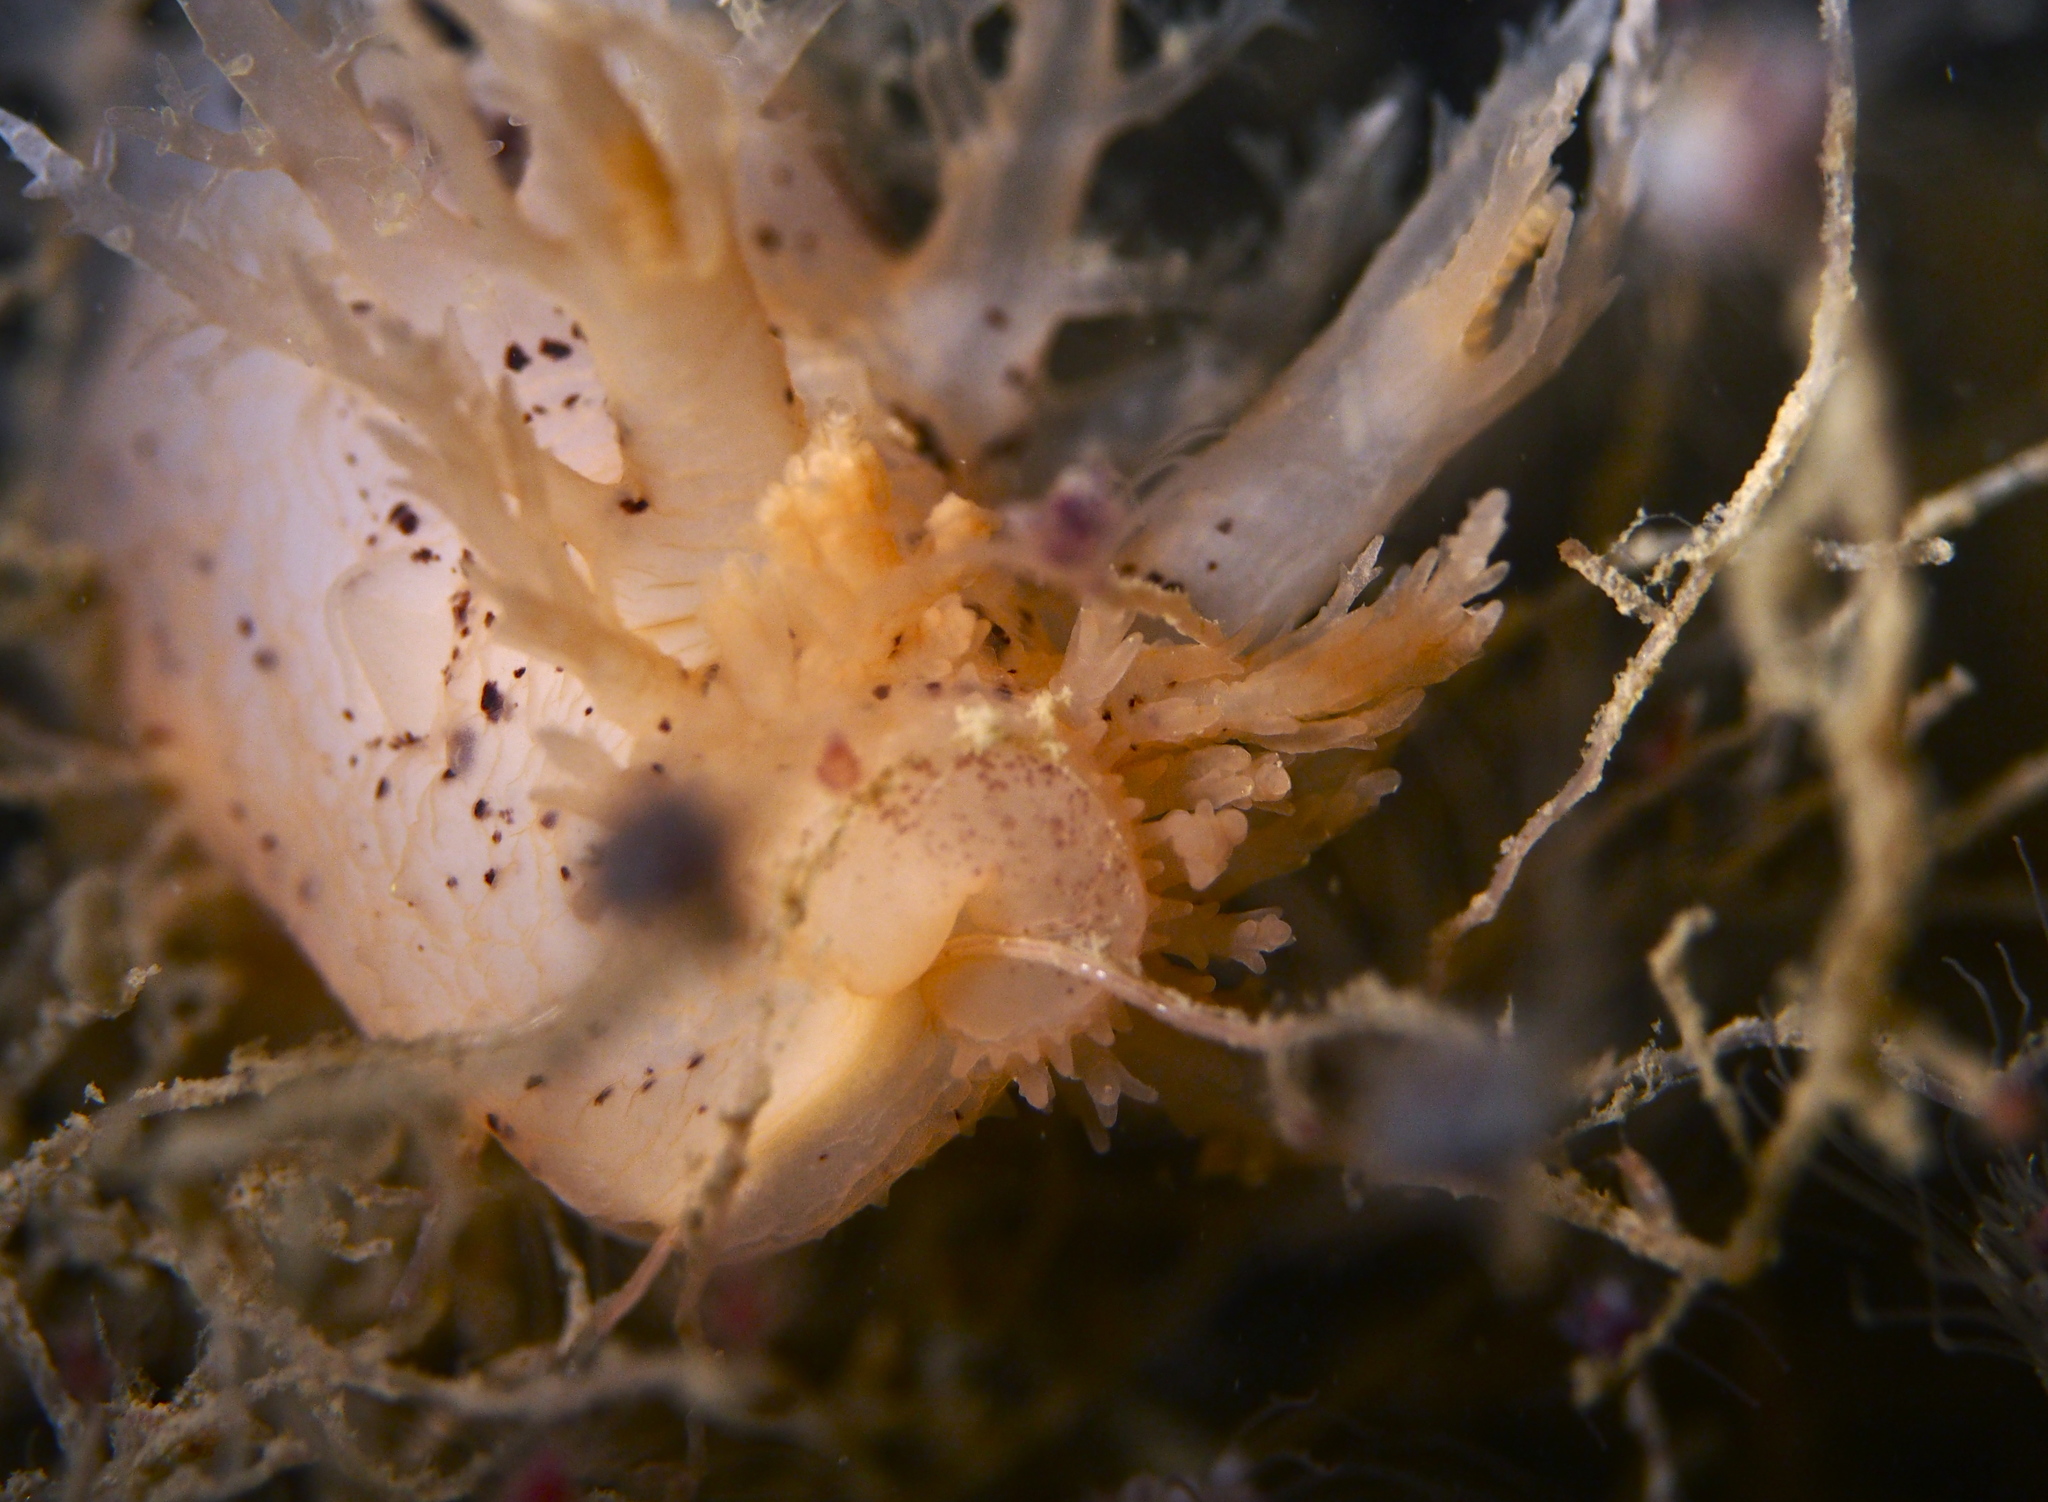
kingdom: Animalia
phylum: Mollusca
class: Gastropoda
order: Nudibranchia
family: Dendronotidae
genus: Dendronotus
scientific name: Dendronotus lacteus
